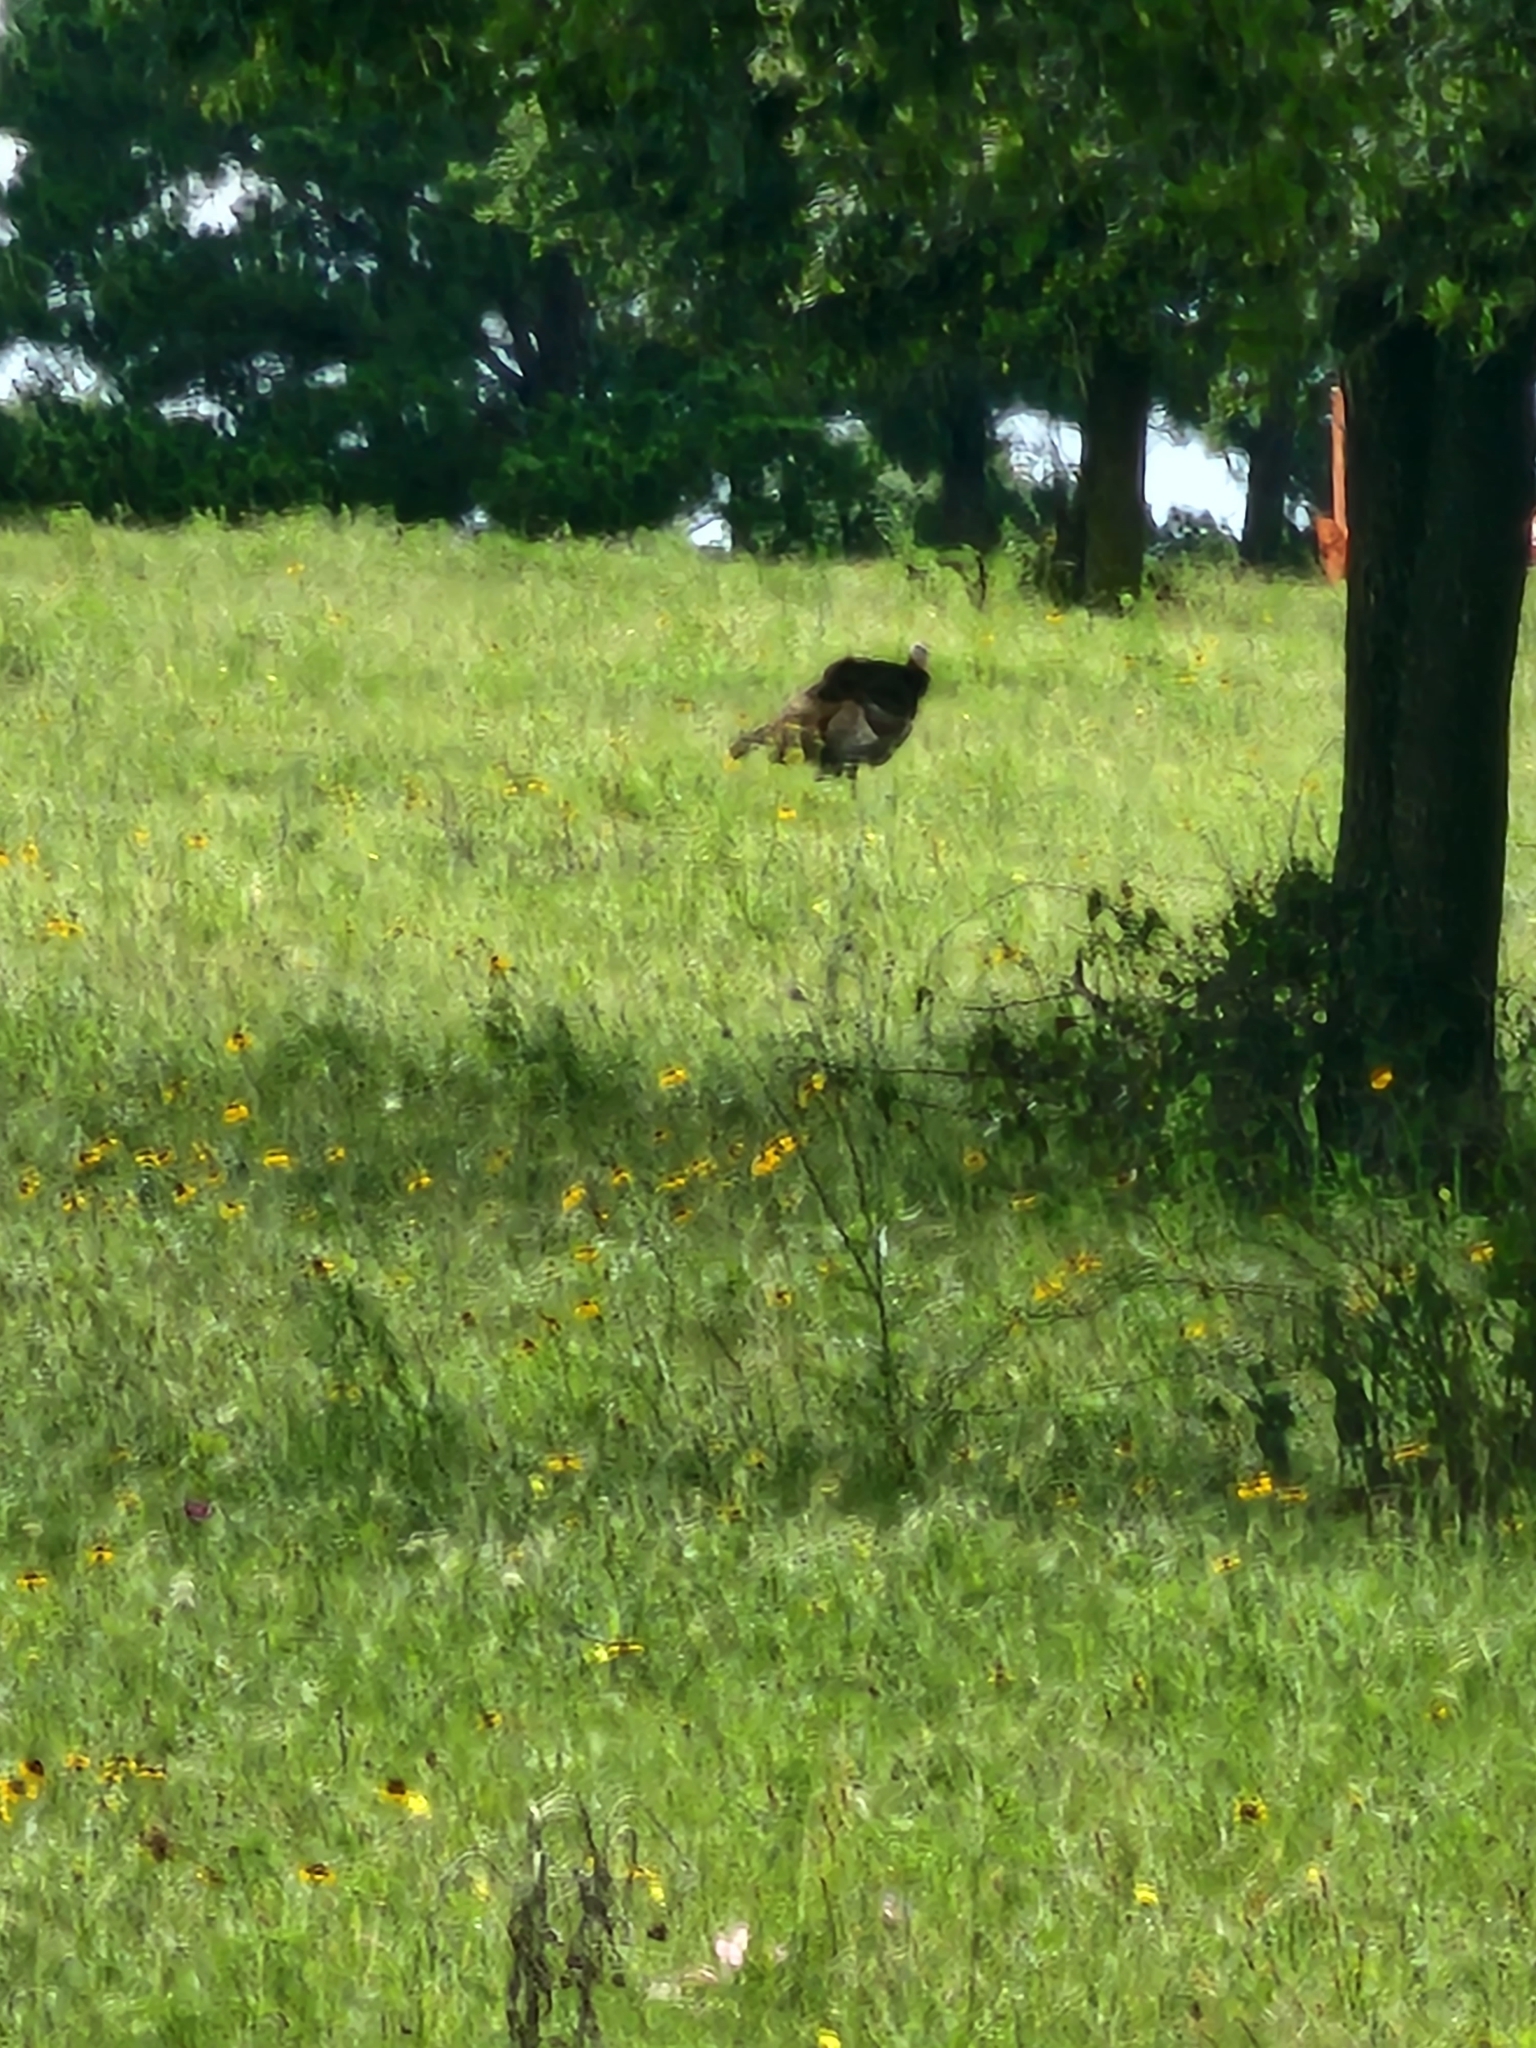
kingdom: Animalia
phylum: Chordata
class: Aves
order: Galliformes
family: Phasianidae
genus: Meleagris
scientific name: Meleagris gallopavo
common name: Wild turkey
